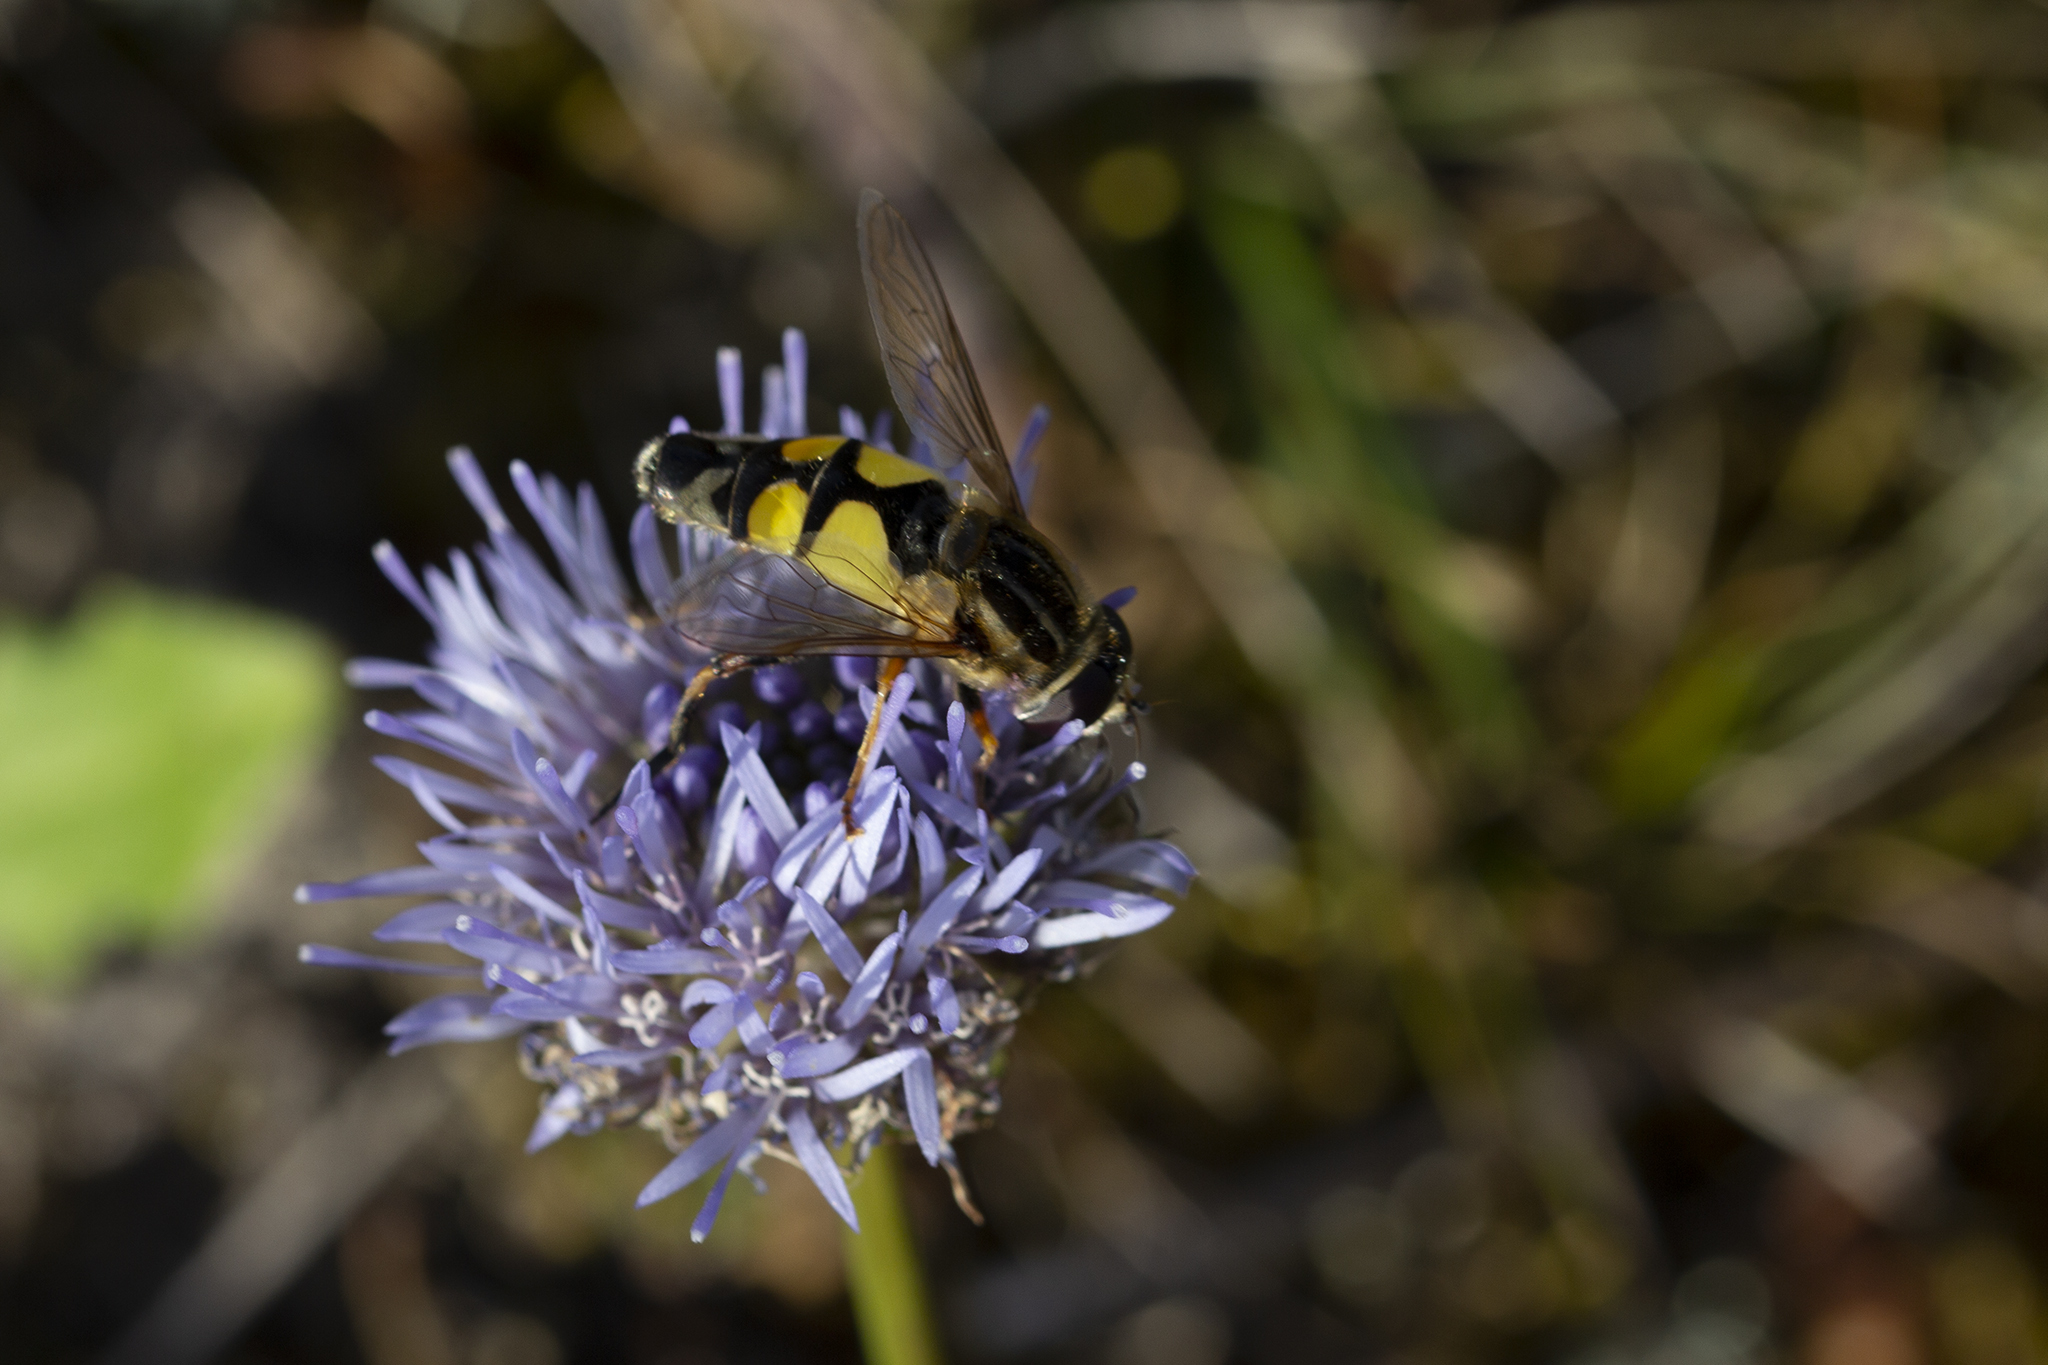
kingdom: Animalia
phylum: Arthropoda
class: Insecta
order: Diptera
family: Syrphidae
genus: Helophilus
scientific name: Helophilus trivittatus
